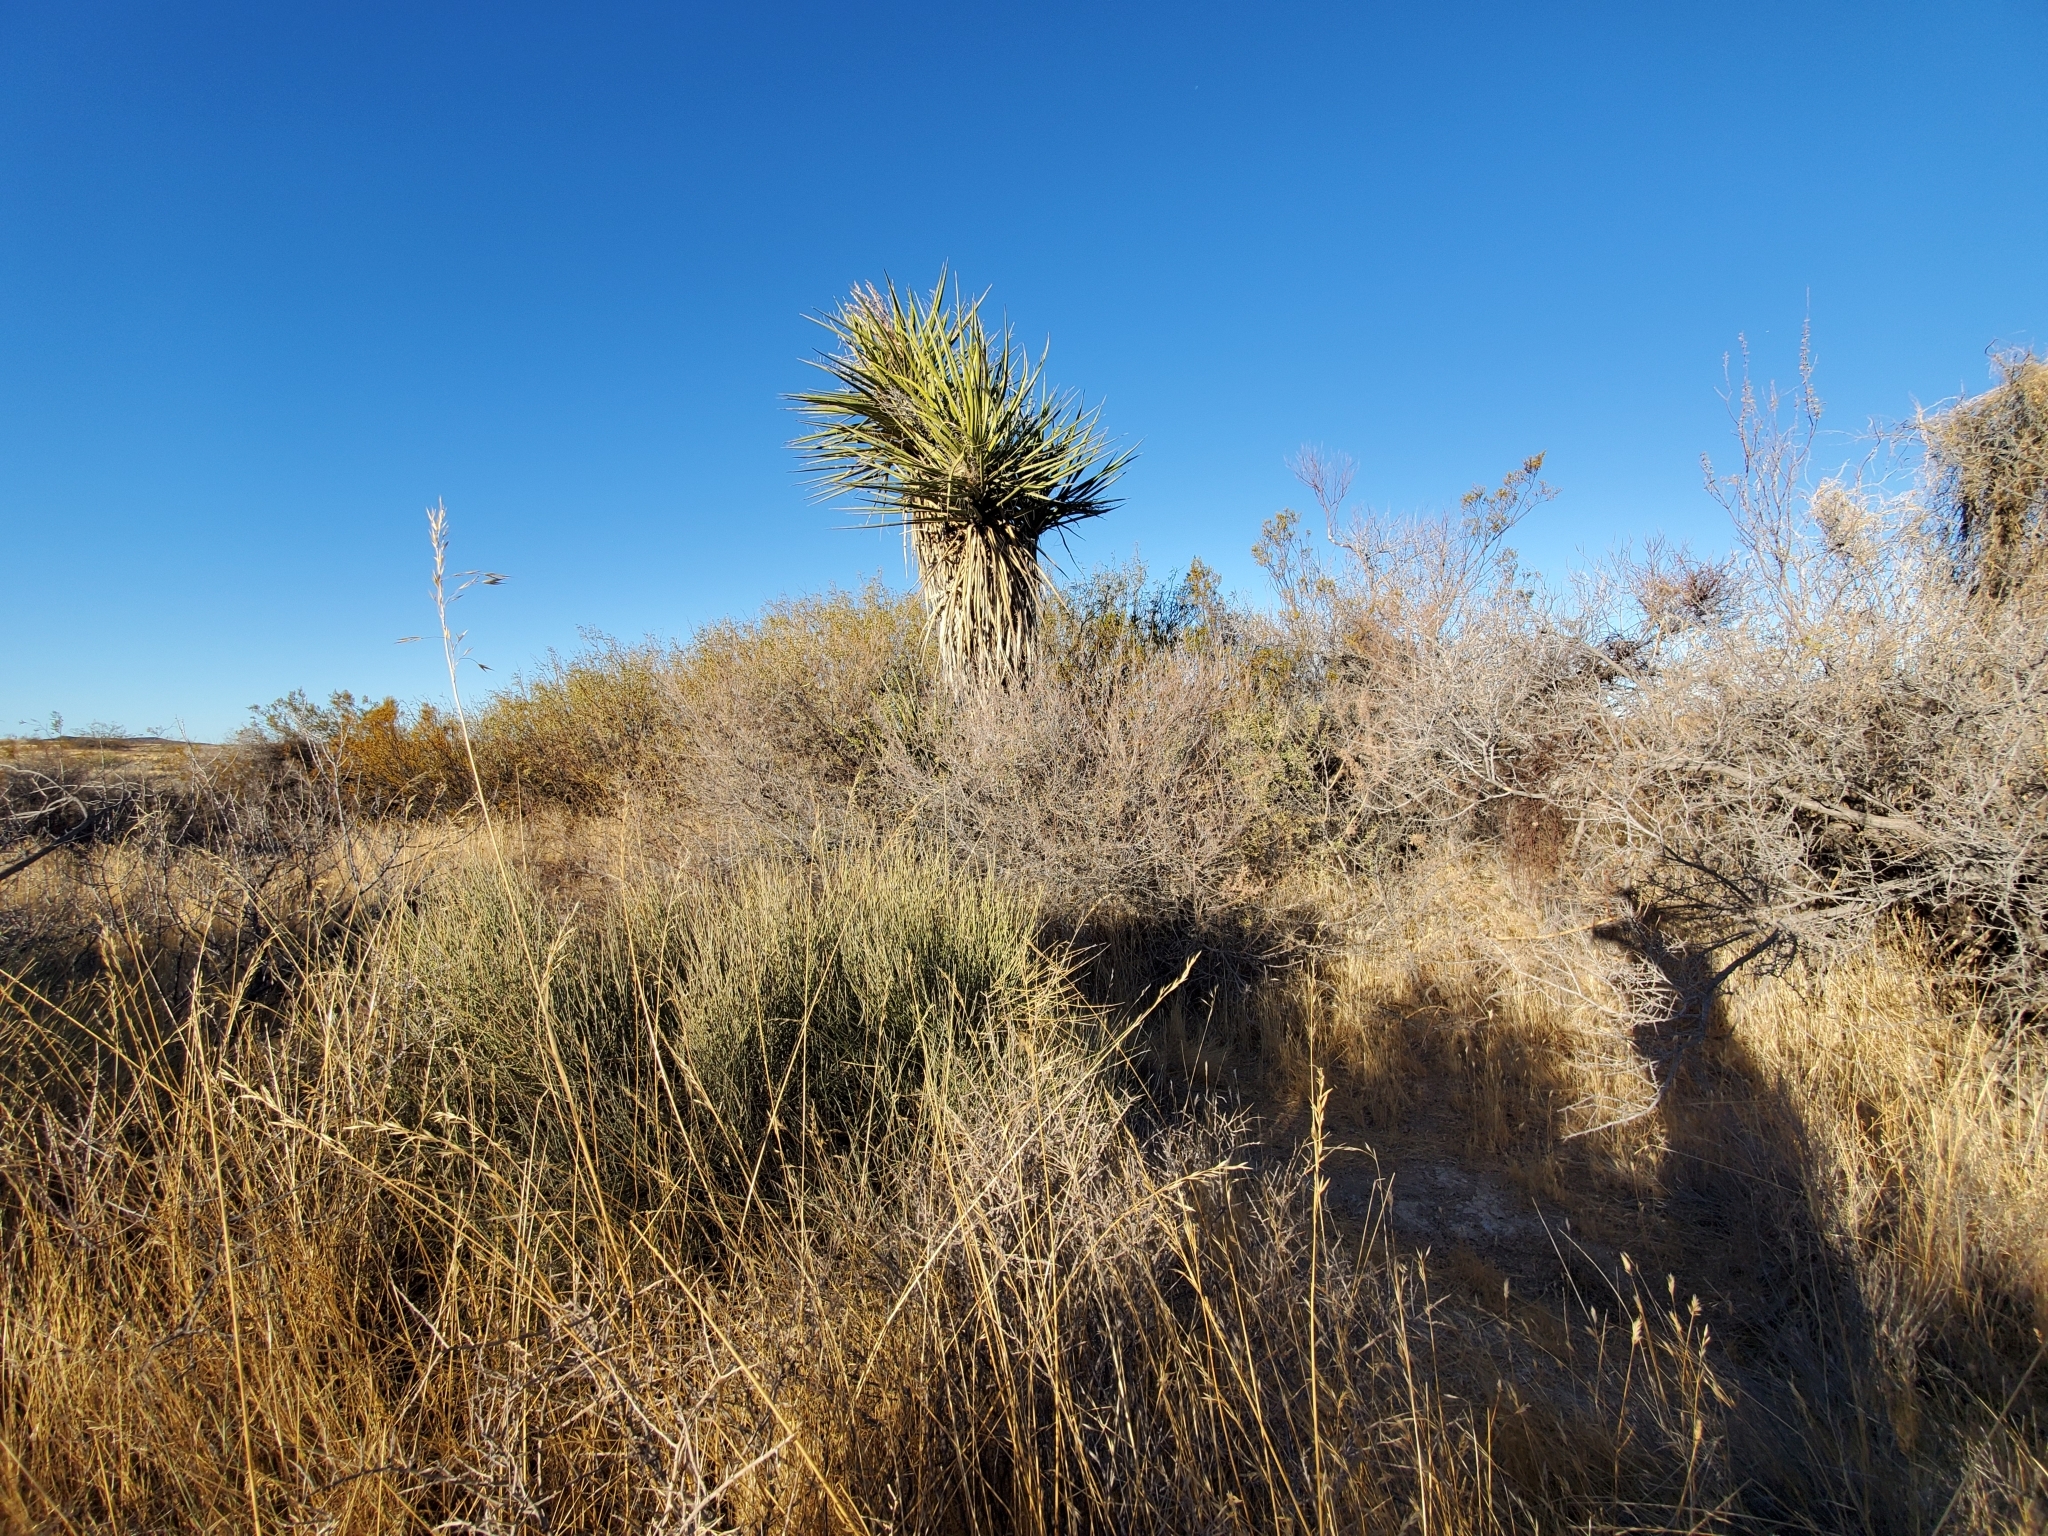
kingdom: Plantae
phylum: Tracheophyta
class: Liliopsida
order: Asparagales
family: Asparagaceae
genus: Yucca
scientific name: Yucca schidigera
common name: Mojave yucca
